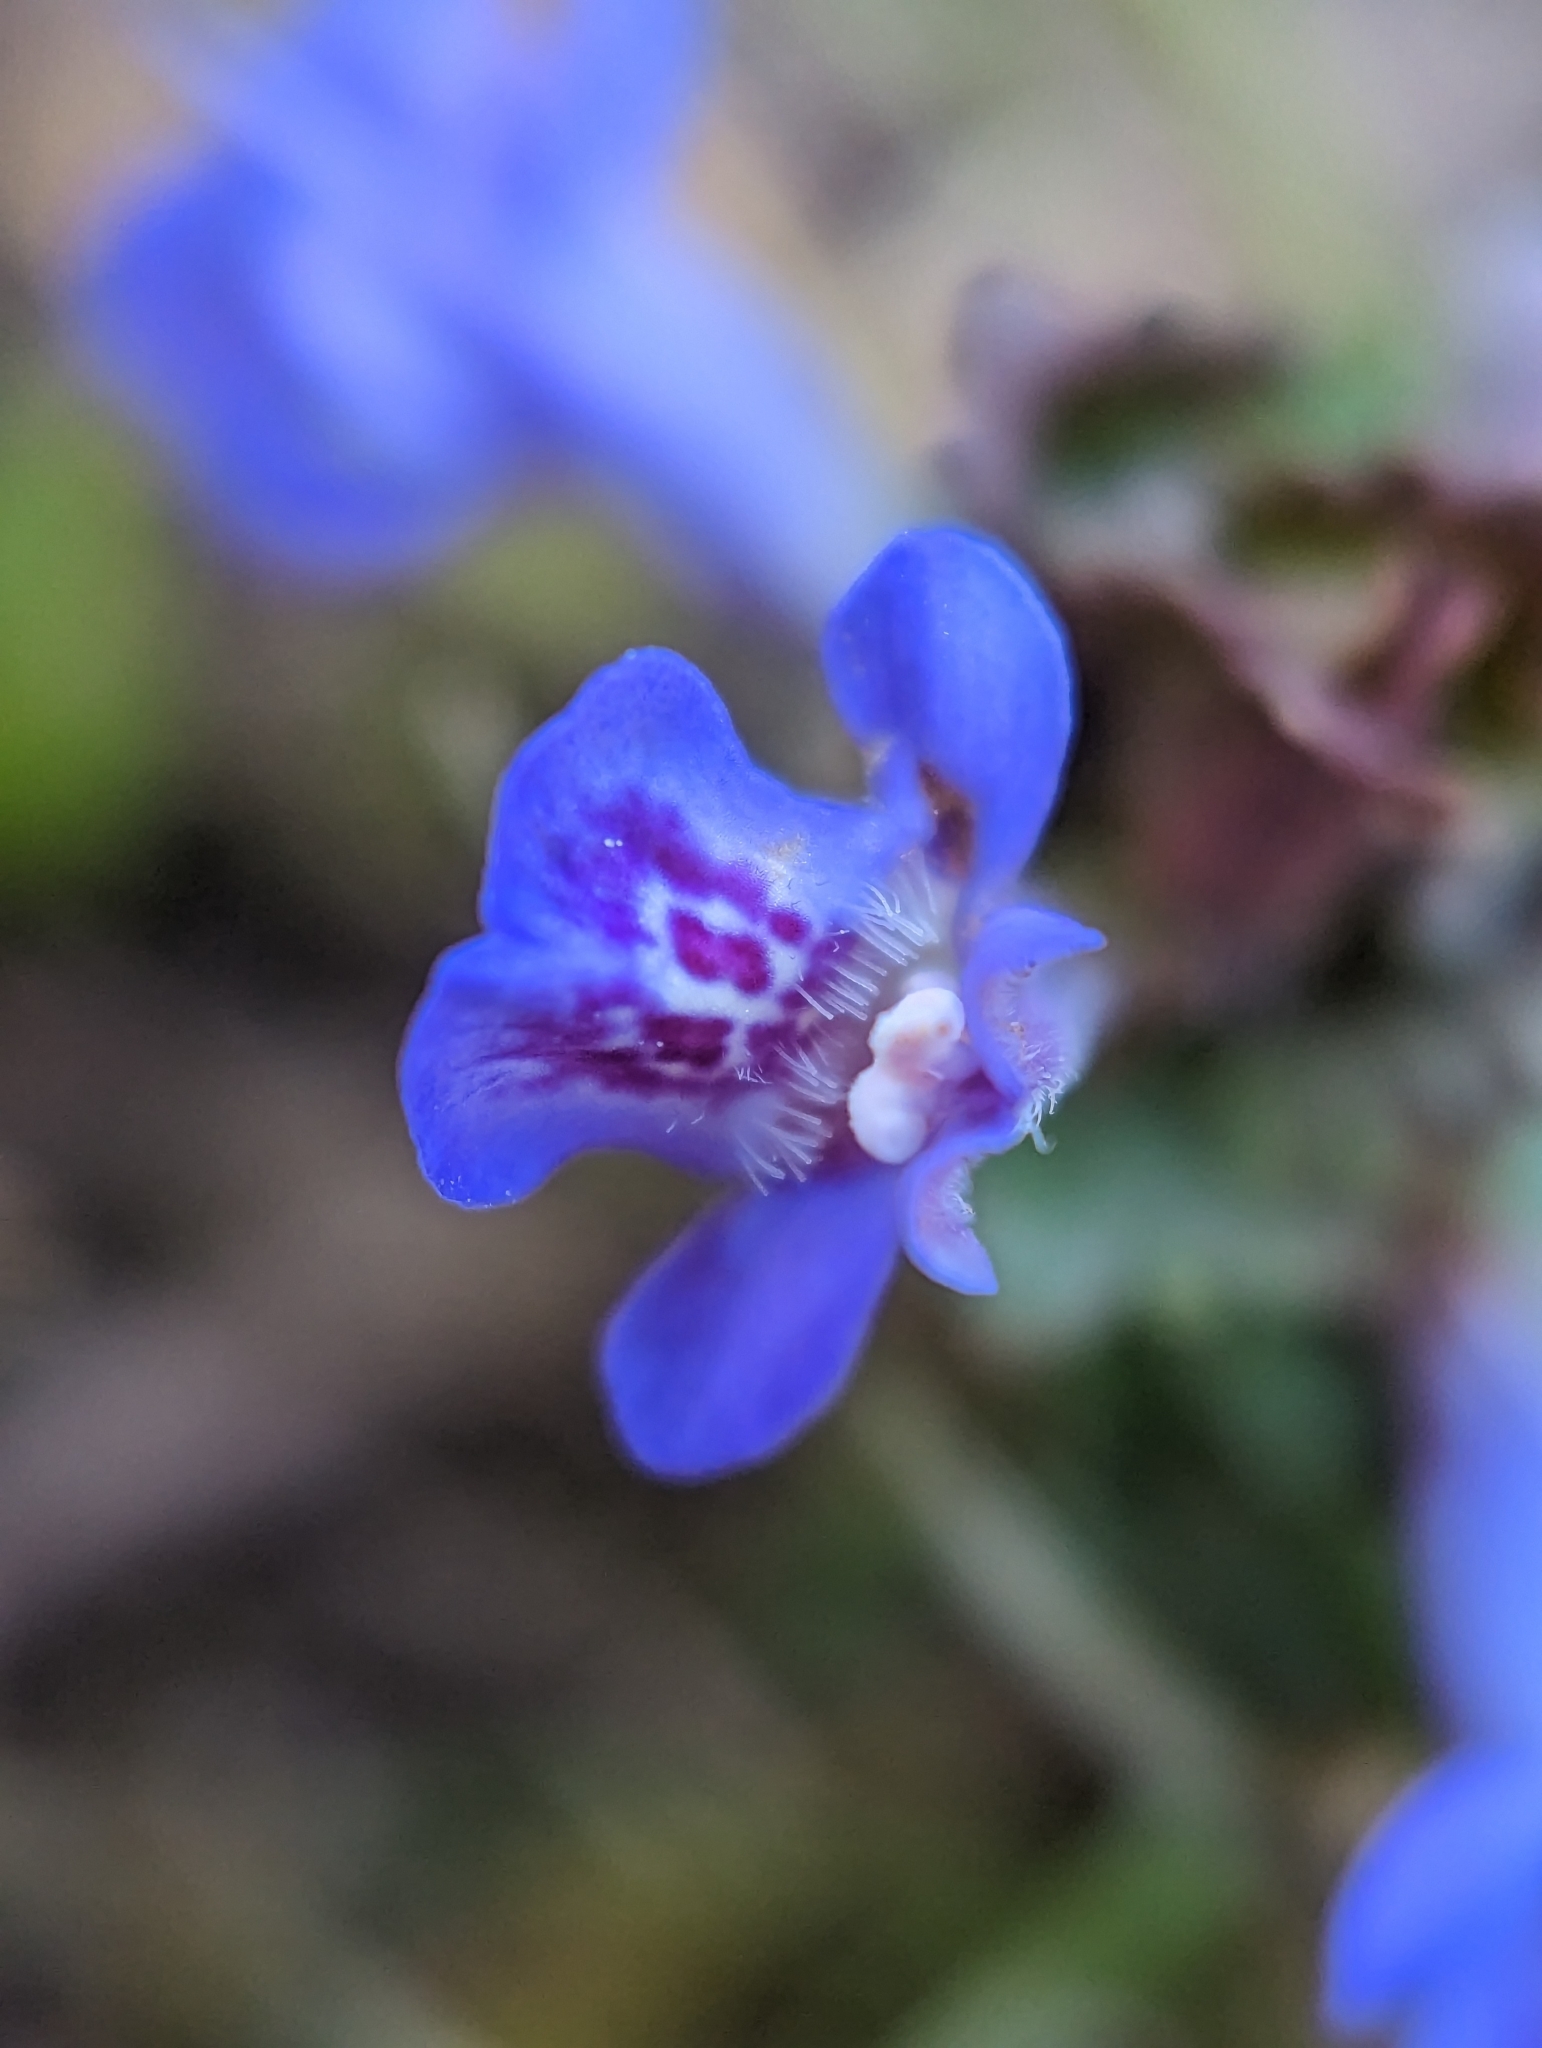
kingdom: Plantae
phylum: Tracheophyta
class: Magnoliopsida
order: Lamiales
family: Lamiaceae
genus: Glechoma
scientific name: Glechoma hederacea
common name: Ground ivy
